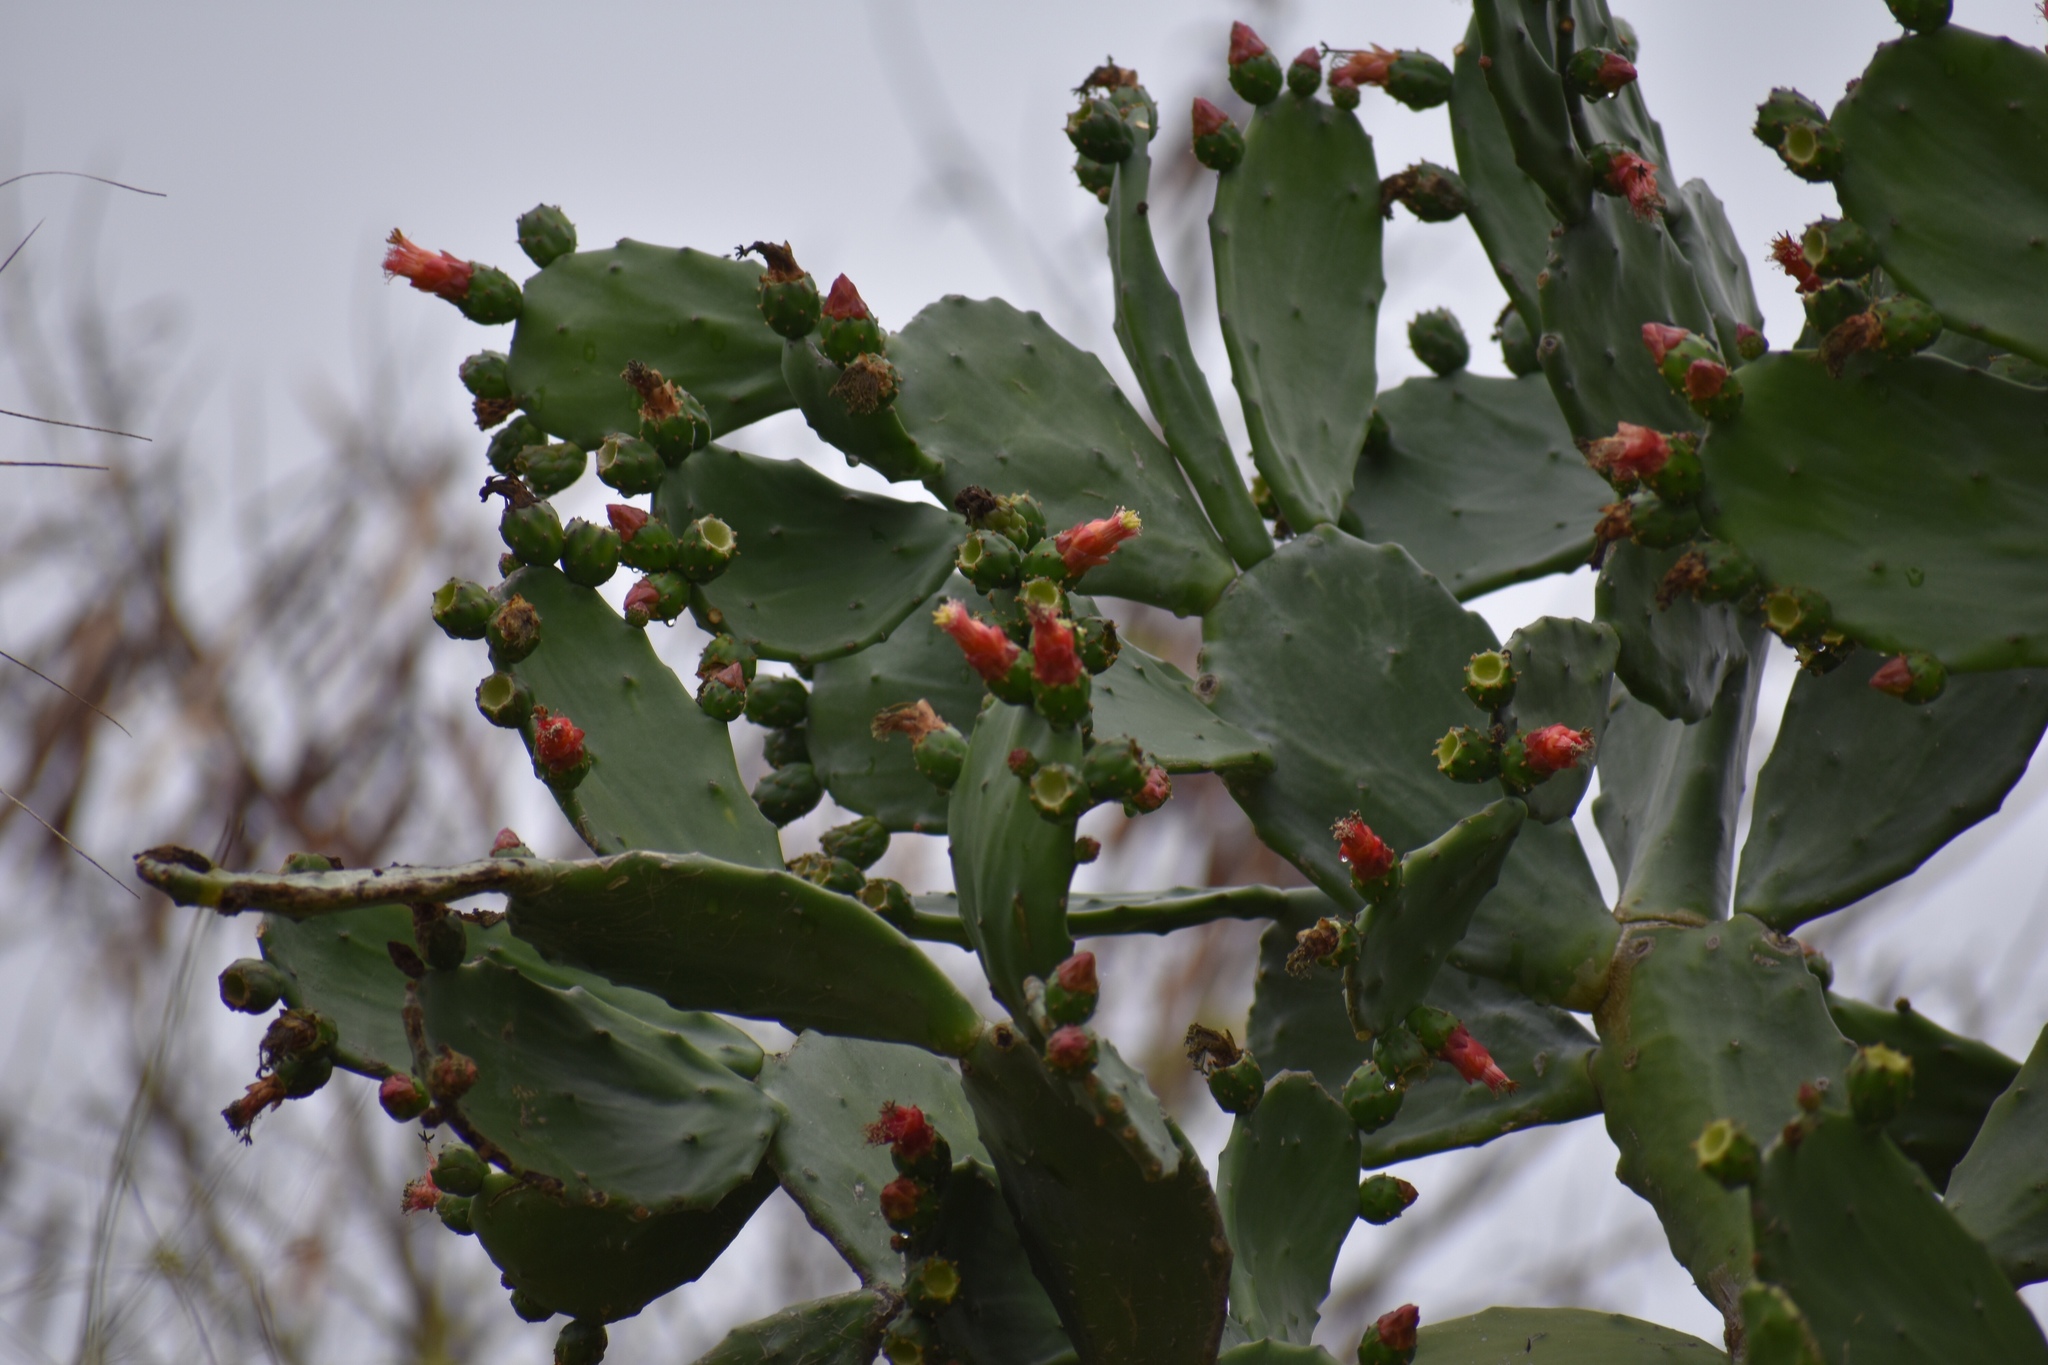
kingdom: Plantae
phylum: Tracheophyta
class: Magnoliopsida
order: Caryophyllales
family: Cactaceae
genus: Opuntia
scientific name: Opuntia cochenillifera
